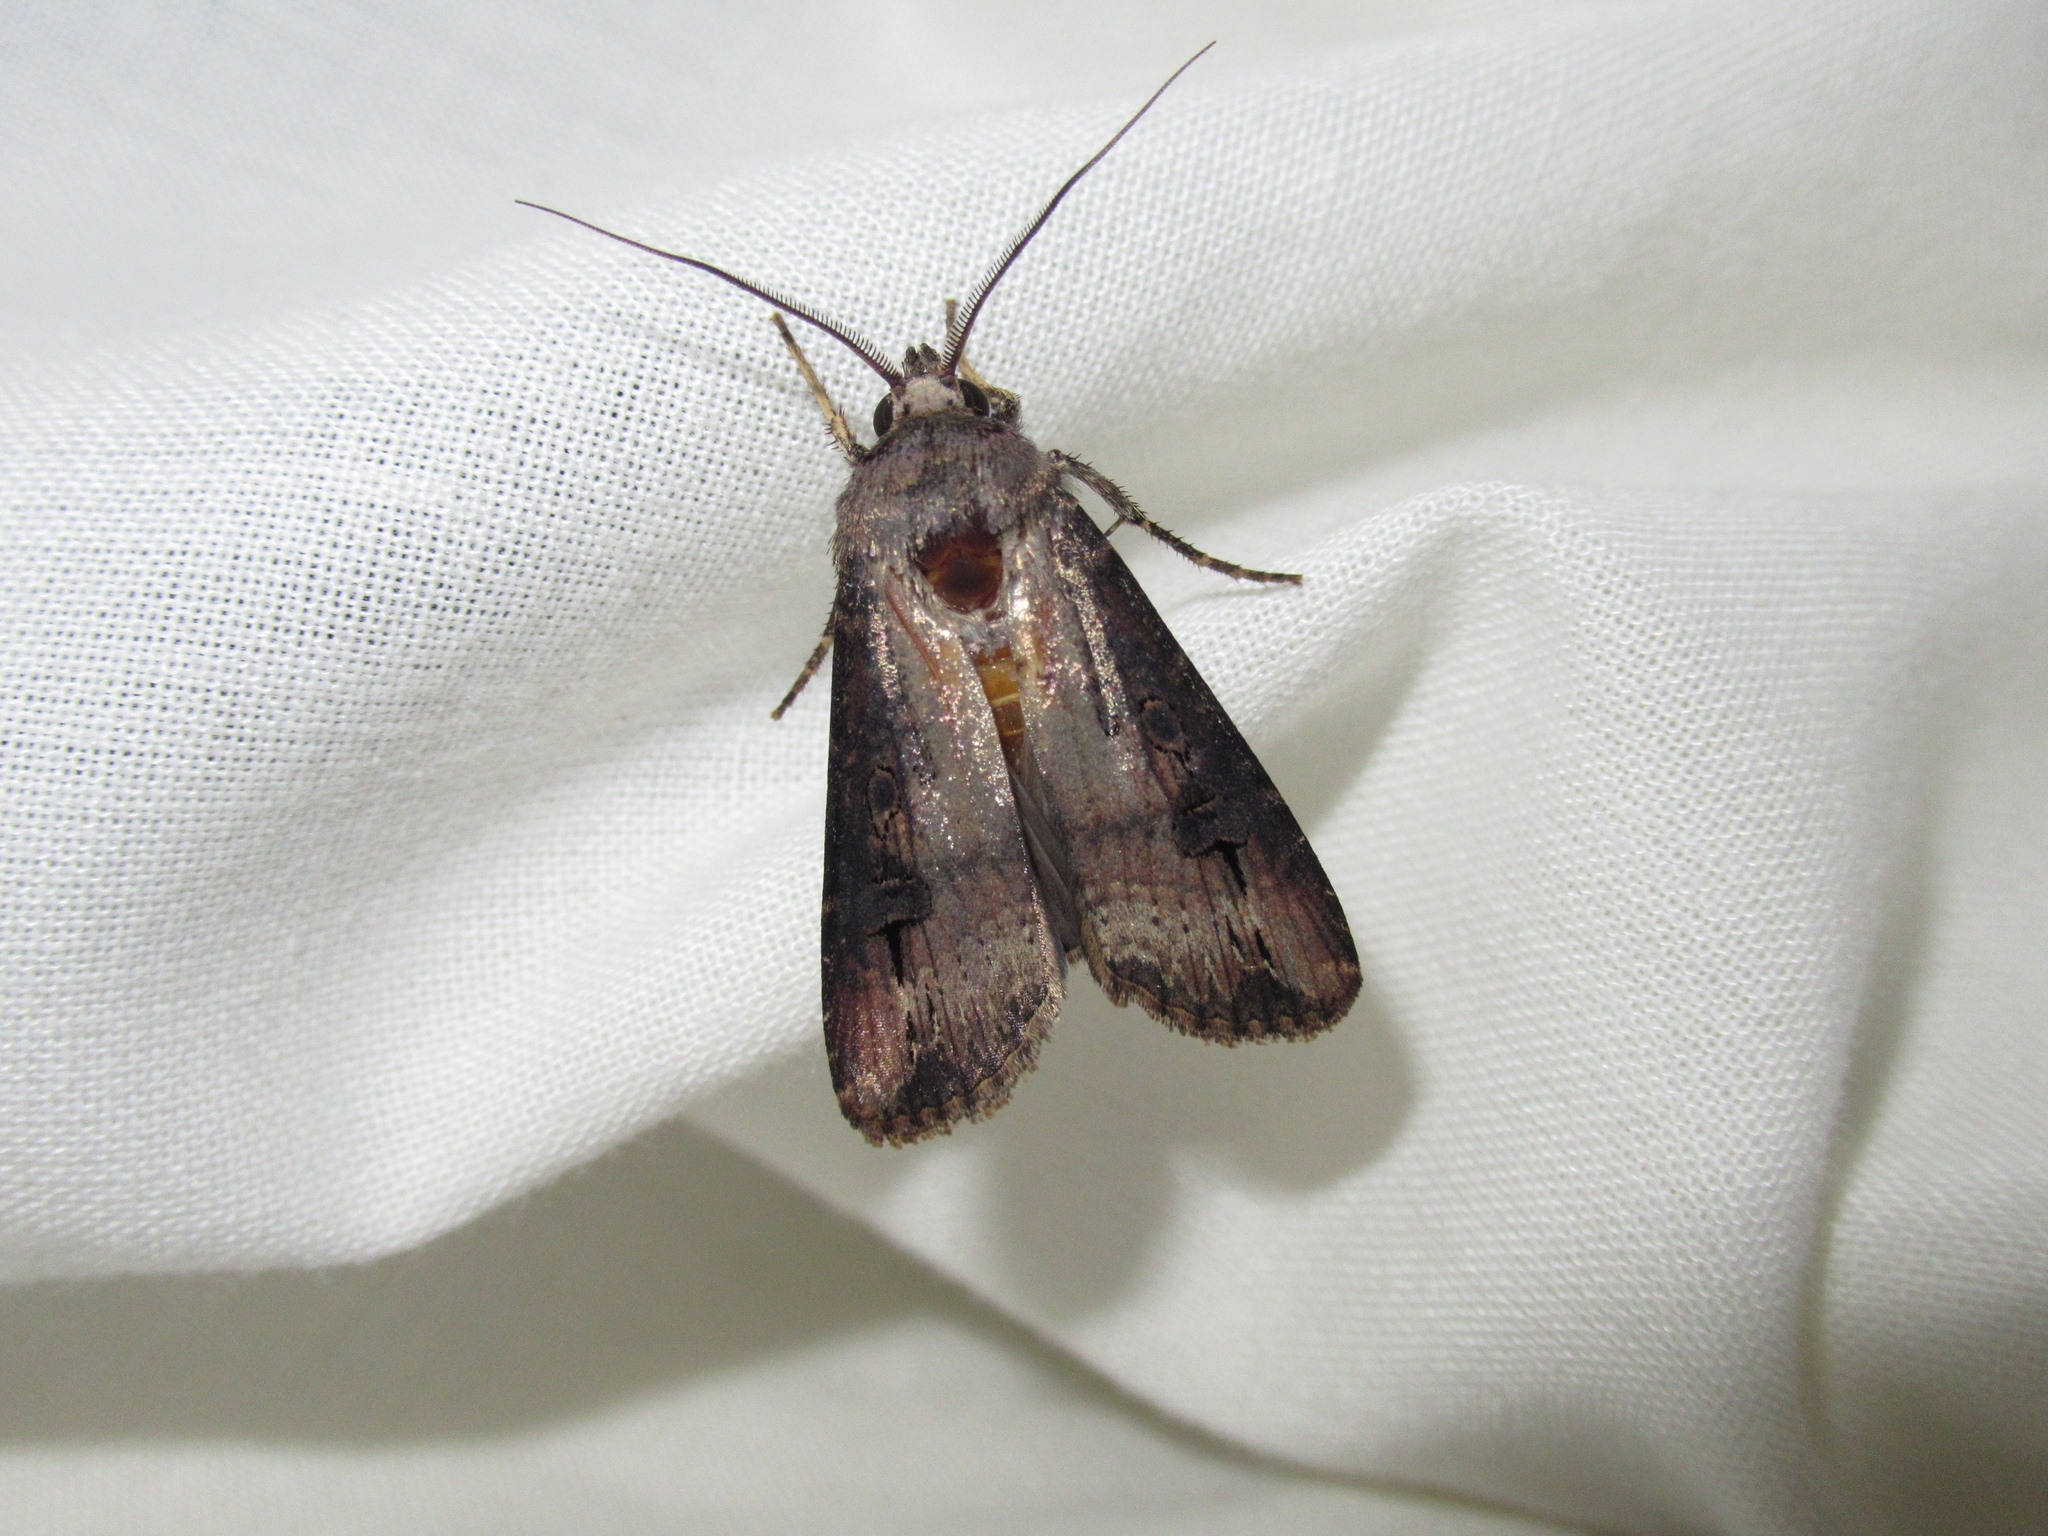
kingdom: Animalia
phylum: Arthropoda
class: Insecta
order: Lepidoptera
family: Noctuidae
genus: Agrotis
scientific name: Agrotis ipsilon
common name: Dark sword-grass
